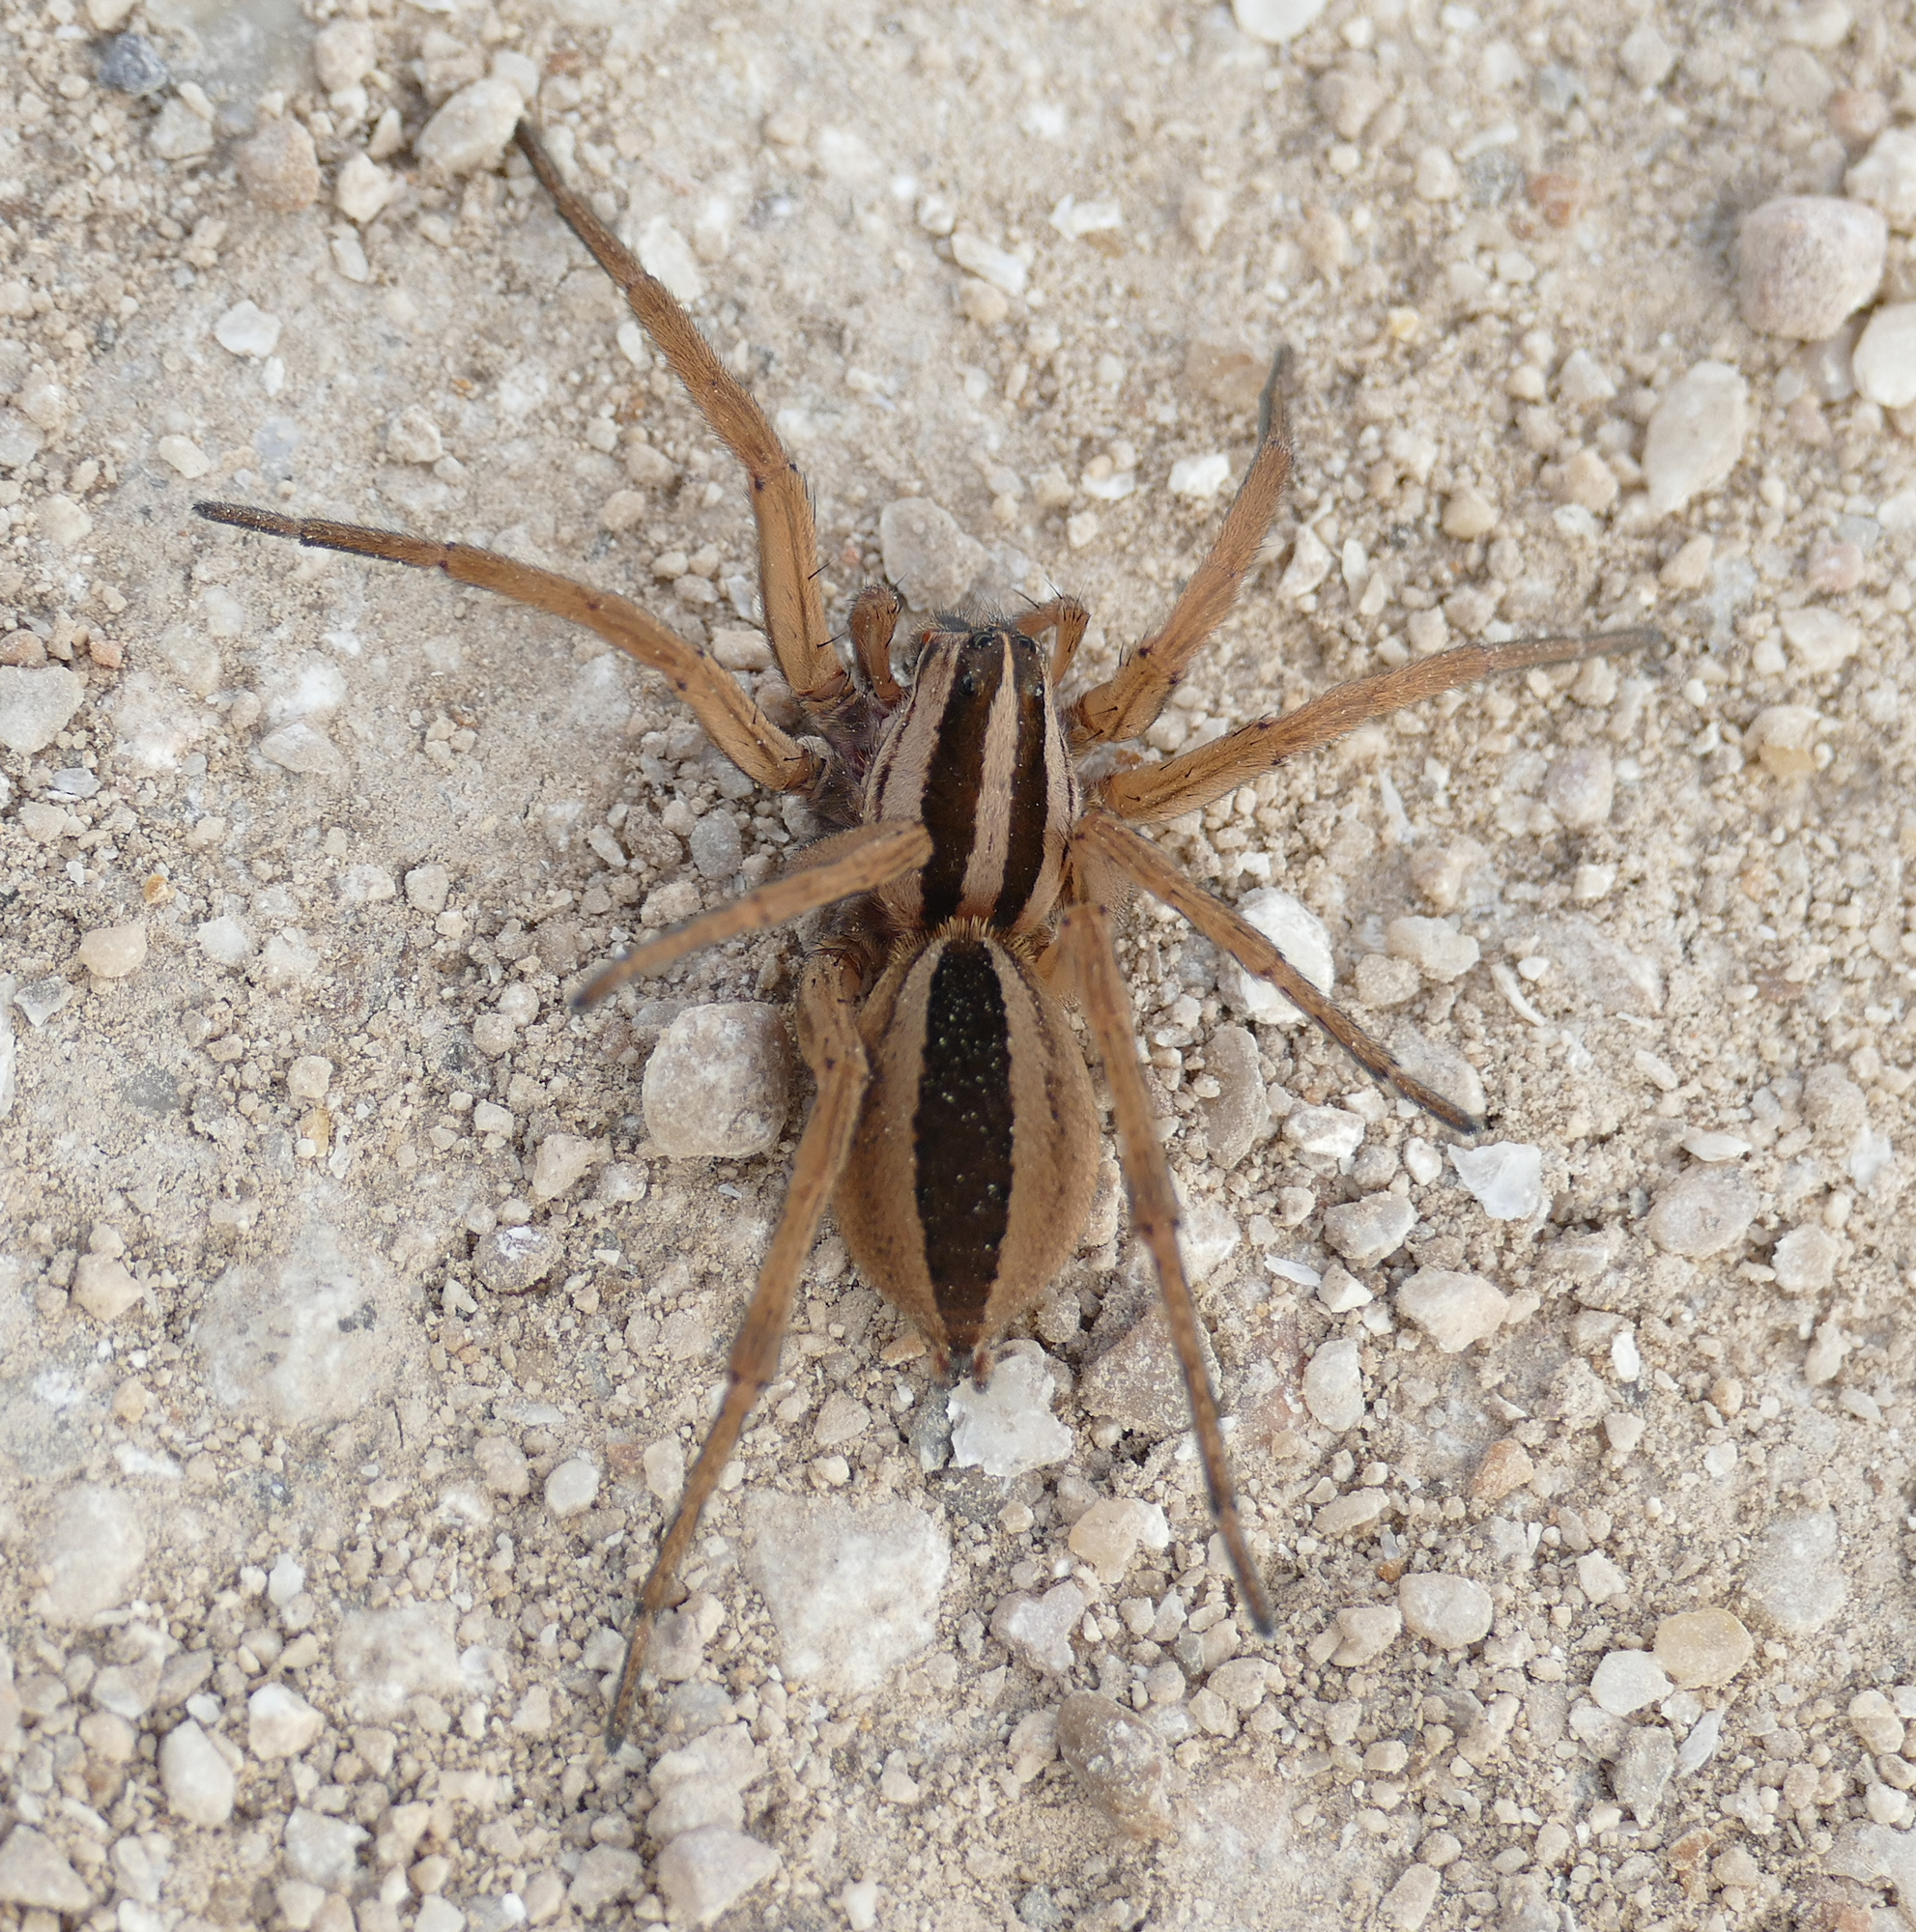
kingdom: Animalia
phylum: Arthropoda
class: Arachnida
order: Araneae
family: Lycosidae
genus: Rabidosa
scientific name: Rabidosa punctulata
